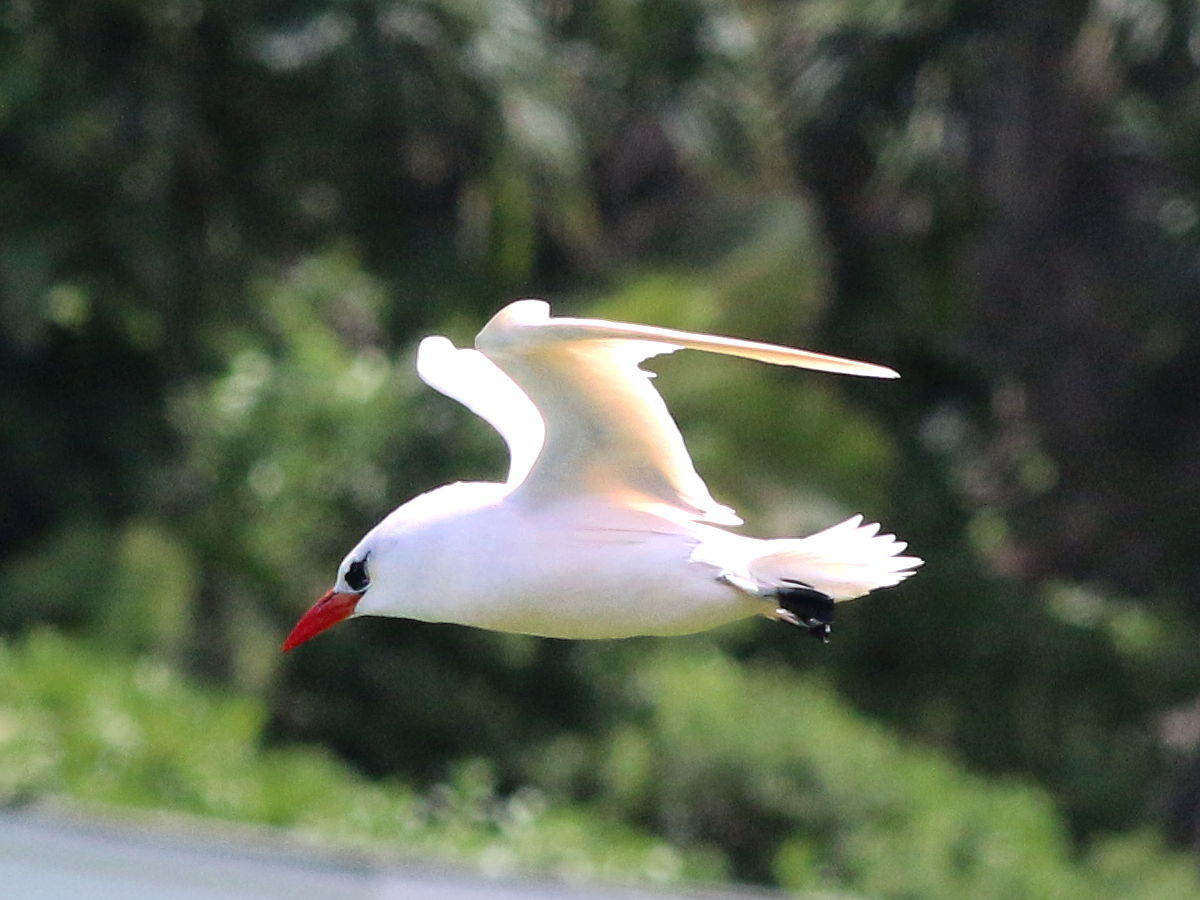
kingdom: Animalia
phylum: Chordata
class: Aves
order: Phaethontiformes
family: Phaethontidae
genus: Phaethon
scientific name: Phaethon rubricauda
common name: Red-tailed tropicbird
